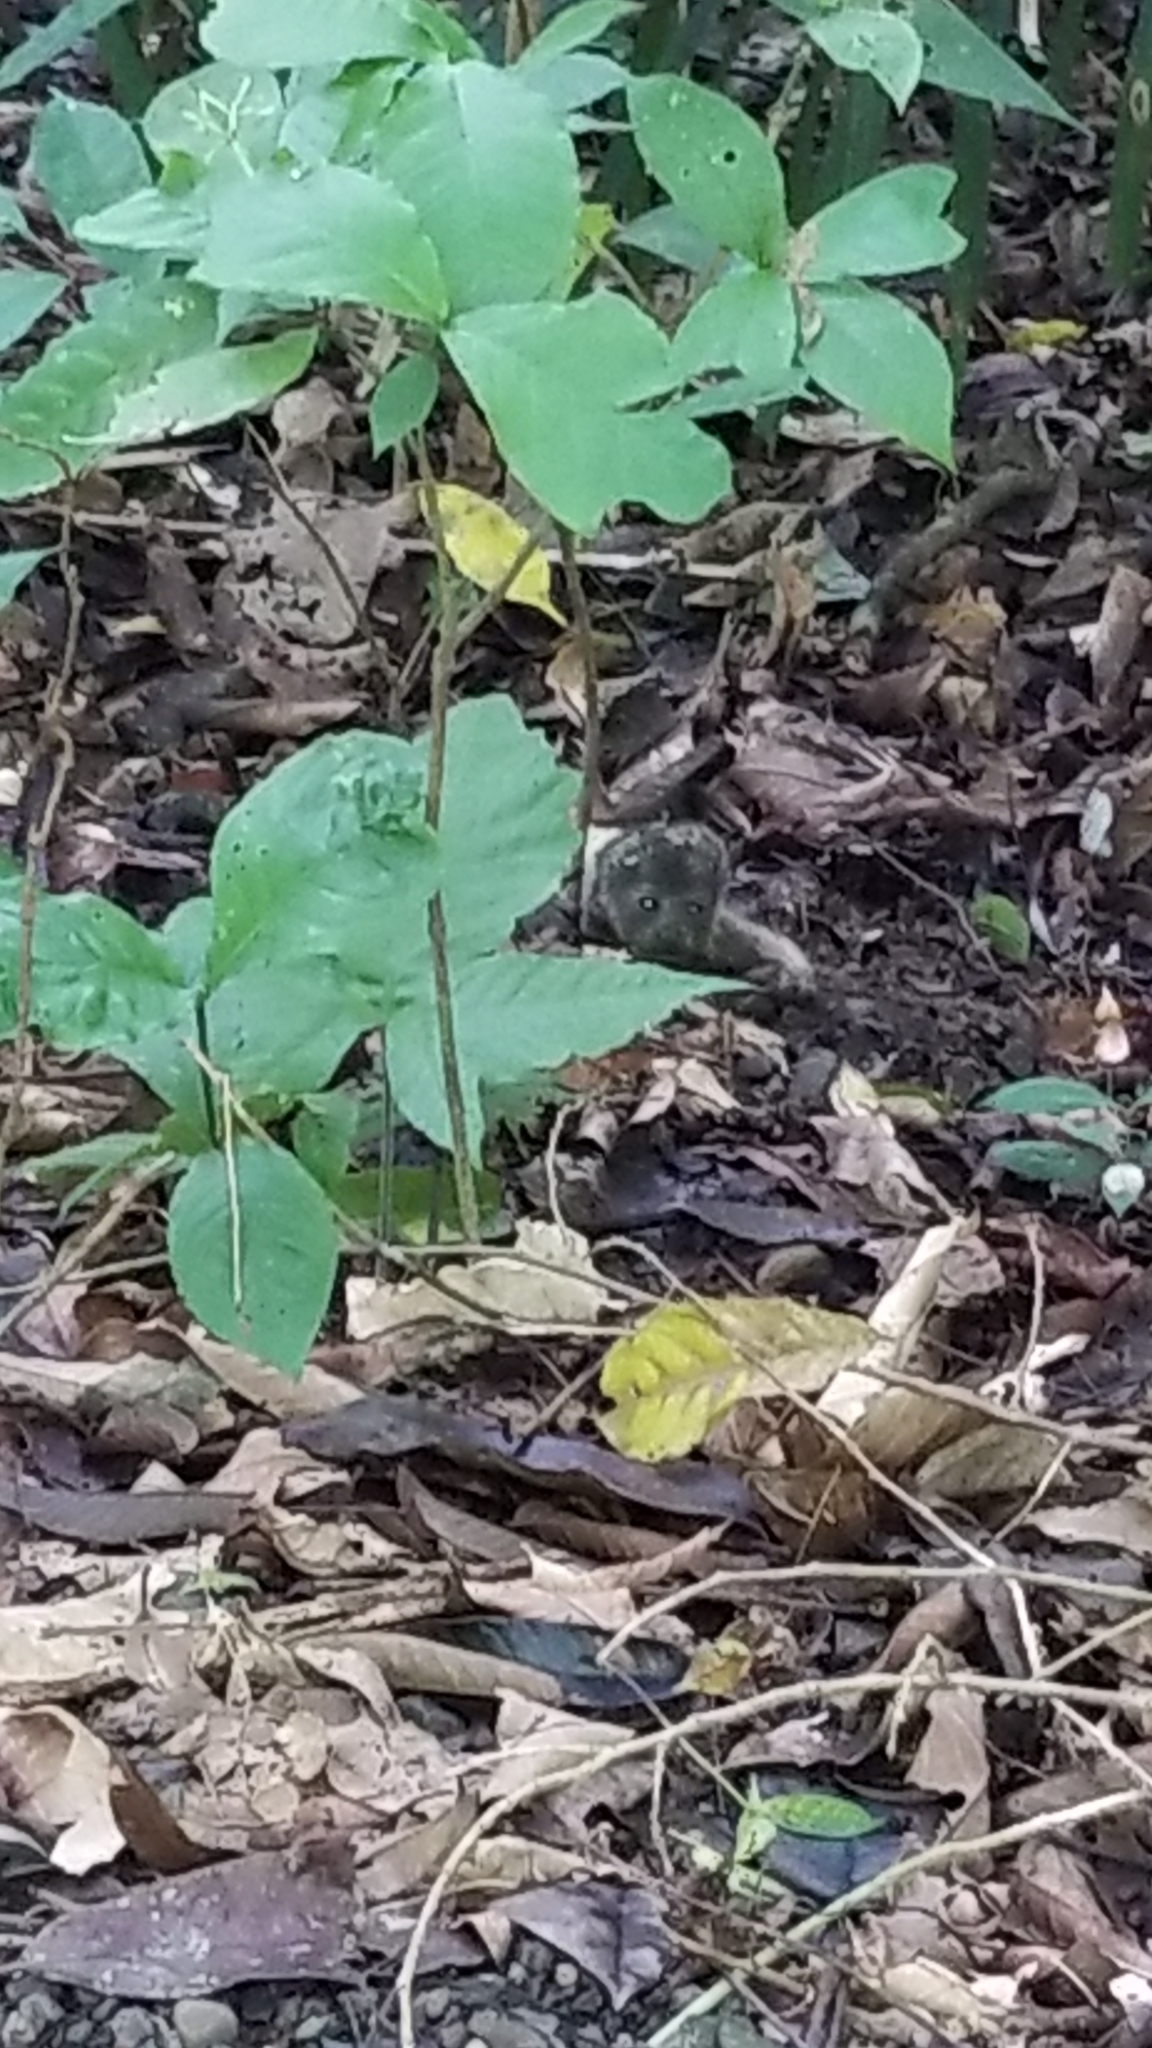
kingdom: Animalia
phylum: Chordata
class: Mammalia
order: Primates
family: Atelidae
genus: Alouatta
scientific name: Alouatta palliata
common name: Mantled howler
